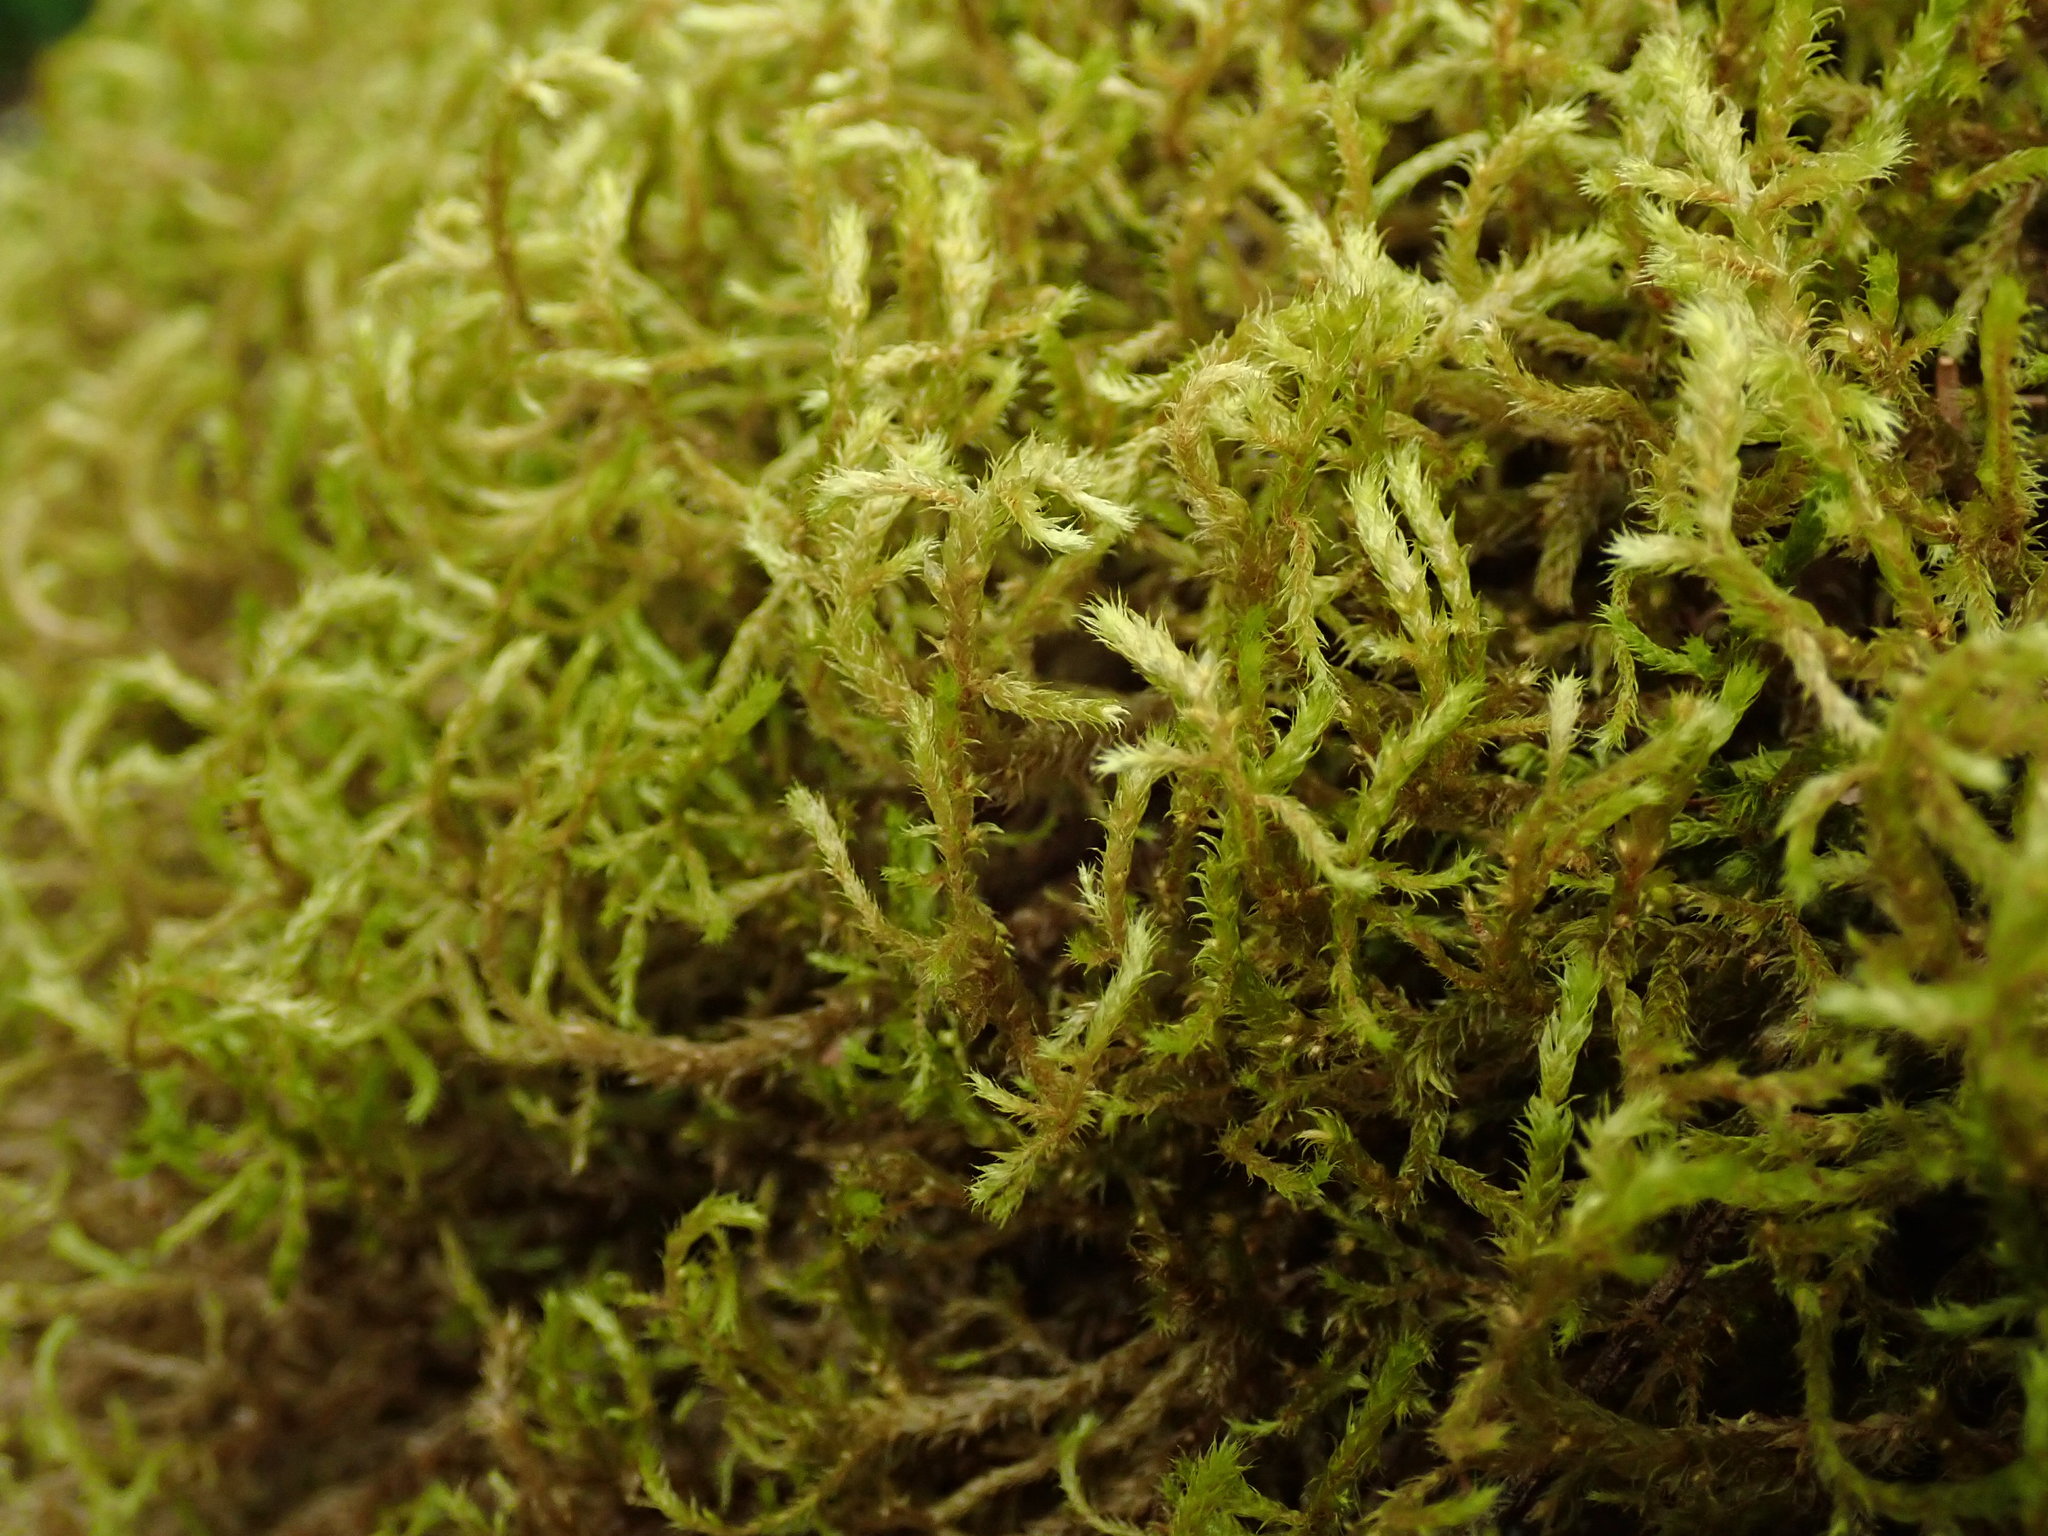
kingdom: Plantae
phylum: Bryophyta
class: Bryopsida
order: Hypnales
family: Antitrichiaceae
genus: Antitrichia
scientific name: Antitrichia curtipendula
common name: Pendulous wing-moss
